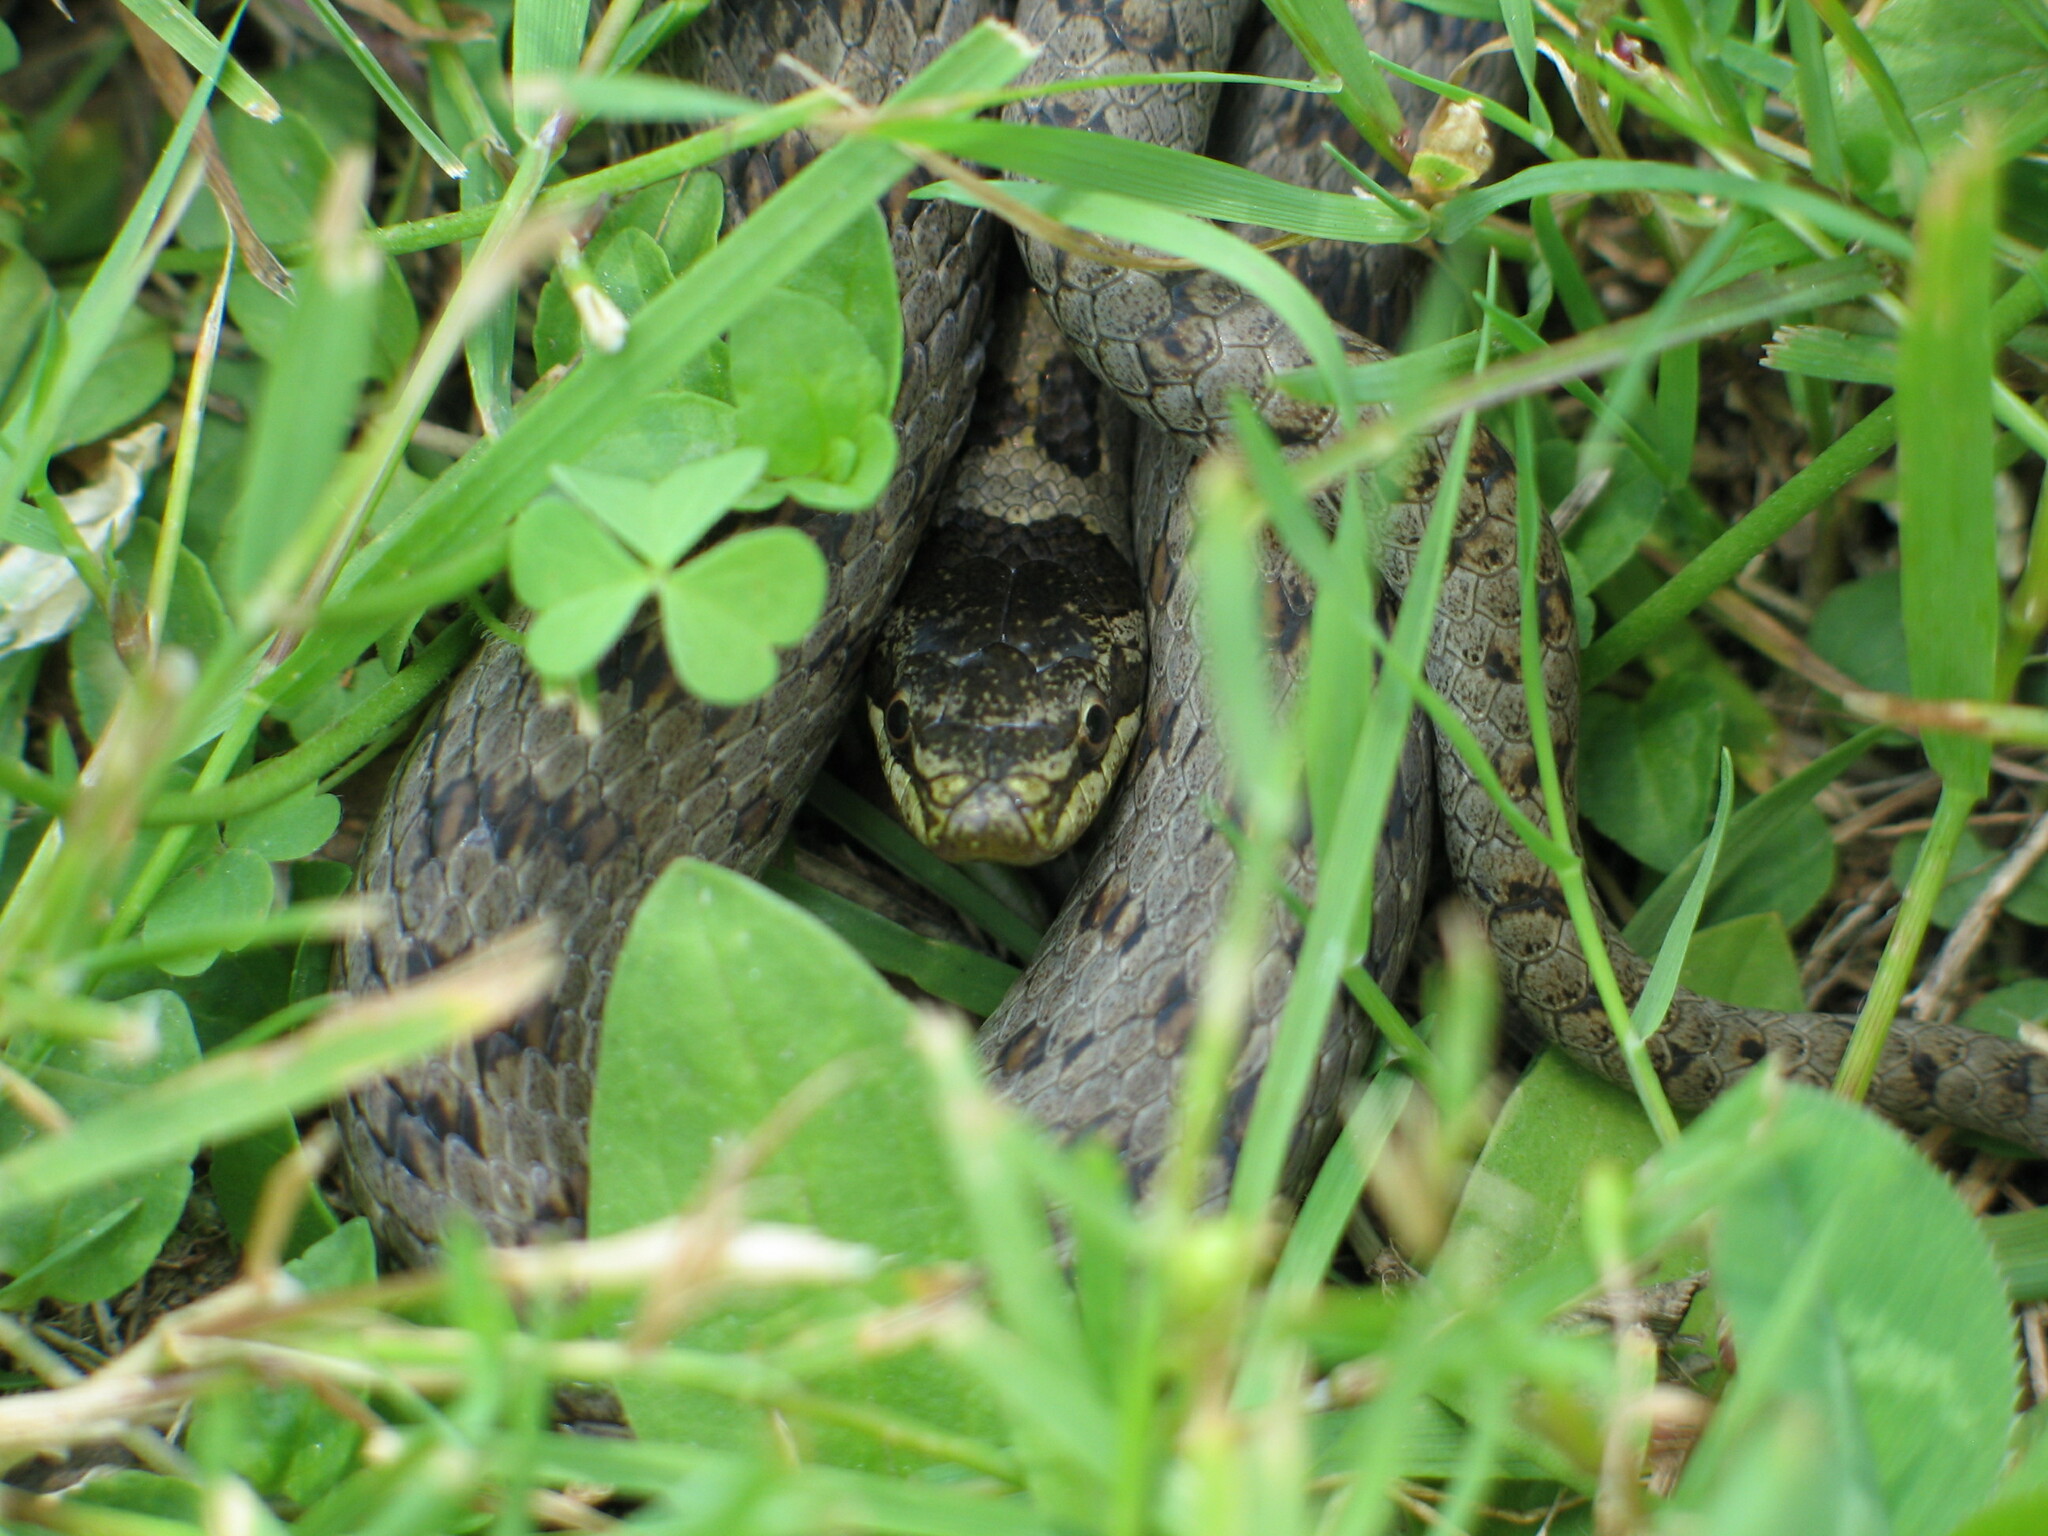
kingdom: Animalia
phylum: Chordata
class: Squamata
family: Colubridae
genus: Coronella
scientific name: Coronella austriaca
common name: Smooth snake
